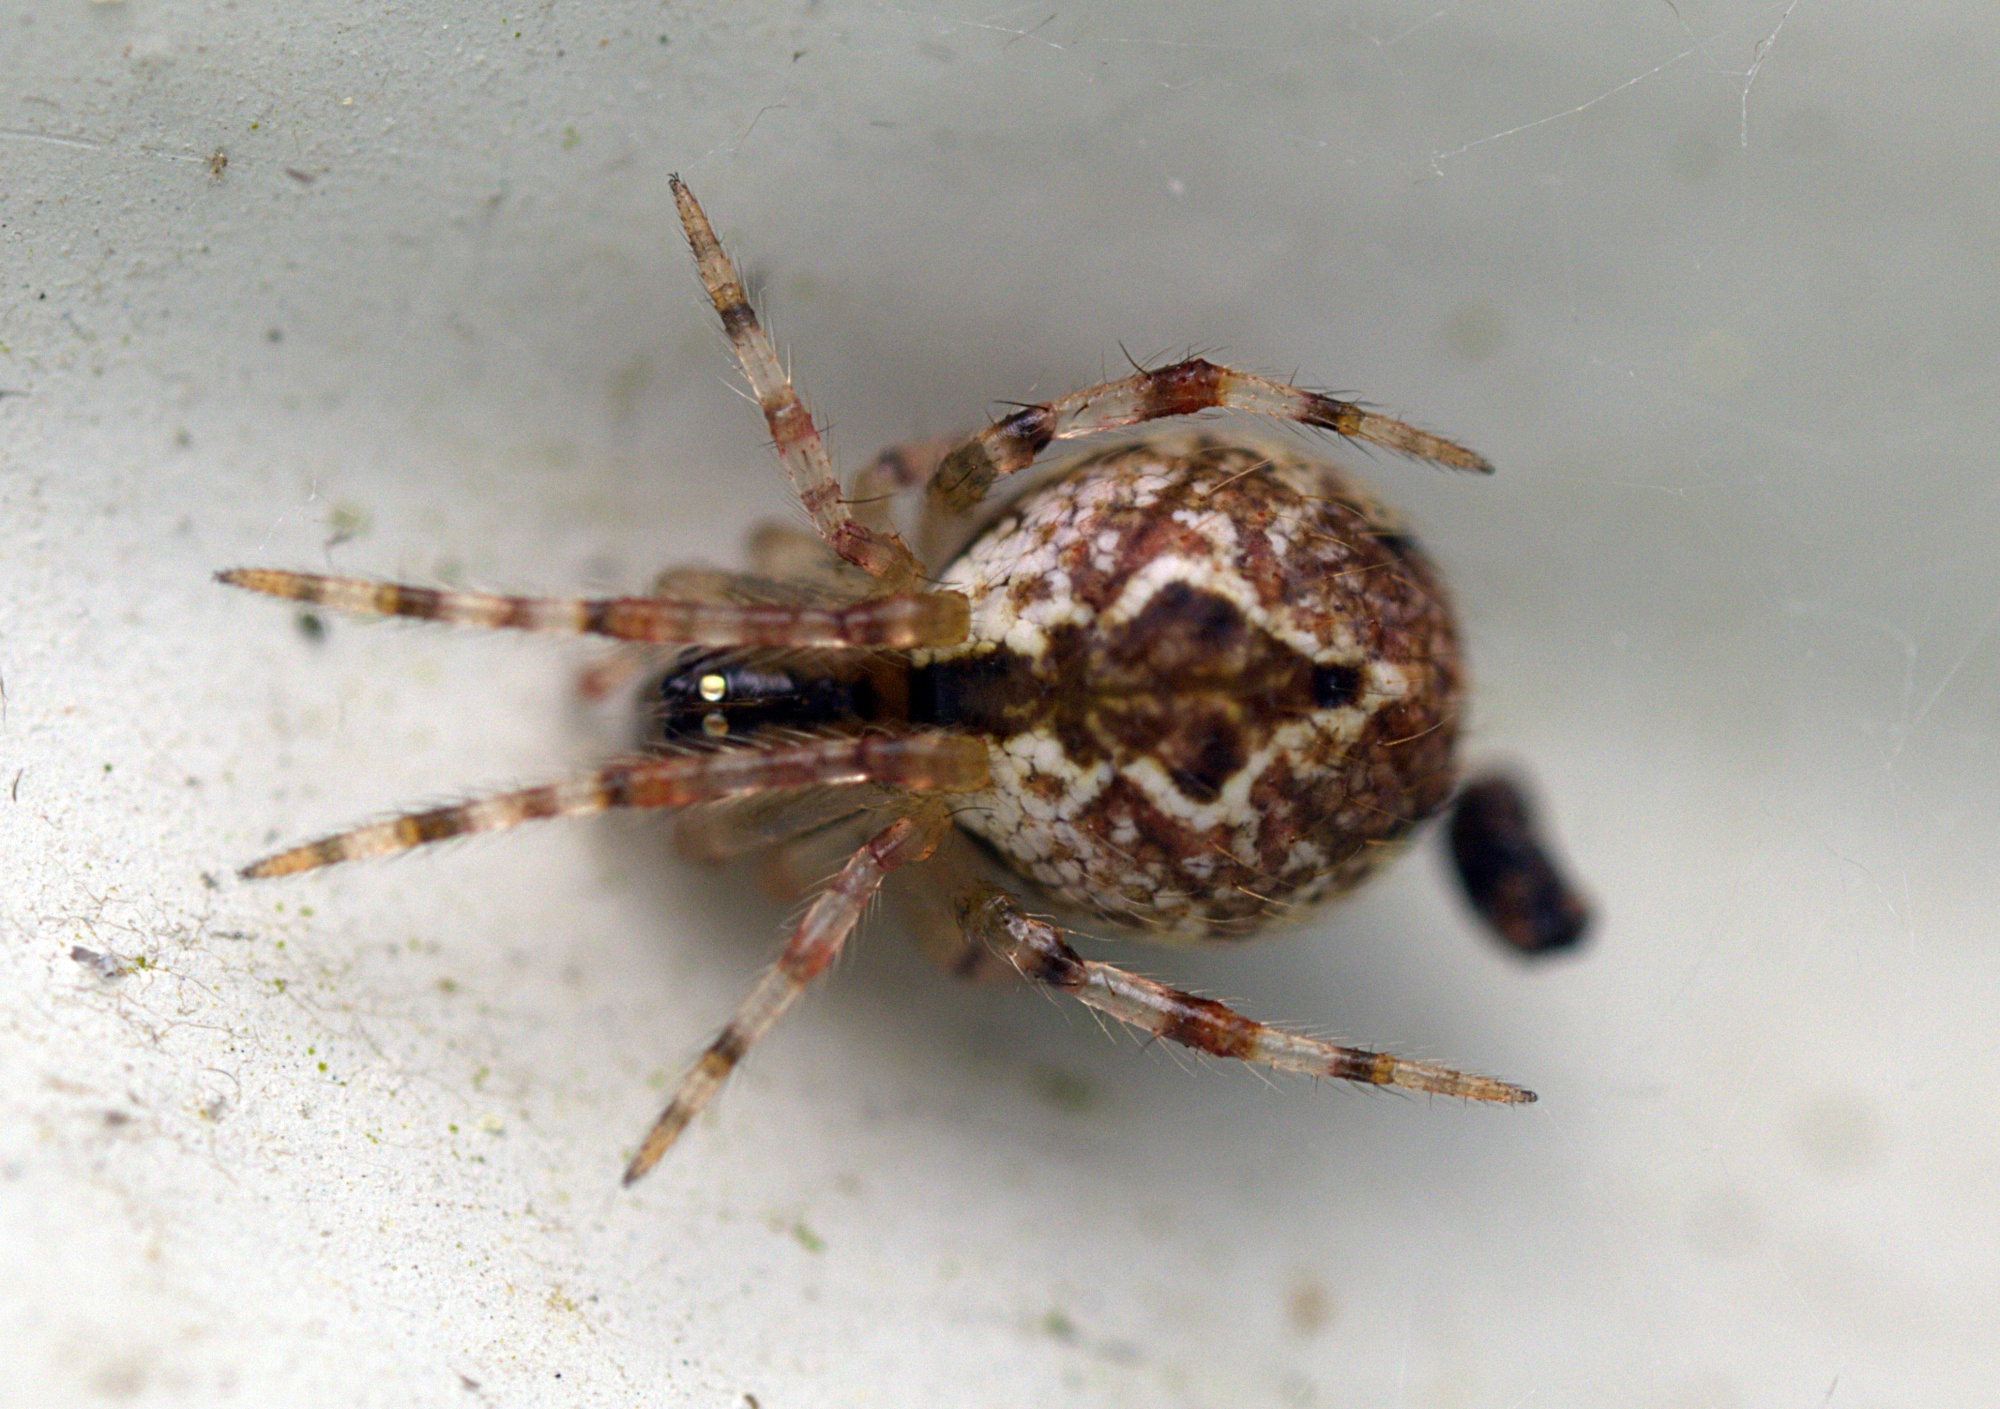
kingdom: Animalia
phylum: Arthropoda
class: Arachnida
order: Araneae
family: Theridiidae
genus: Cryptachaea
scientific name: Cryptachaea veruculata
